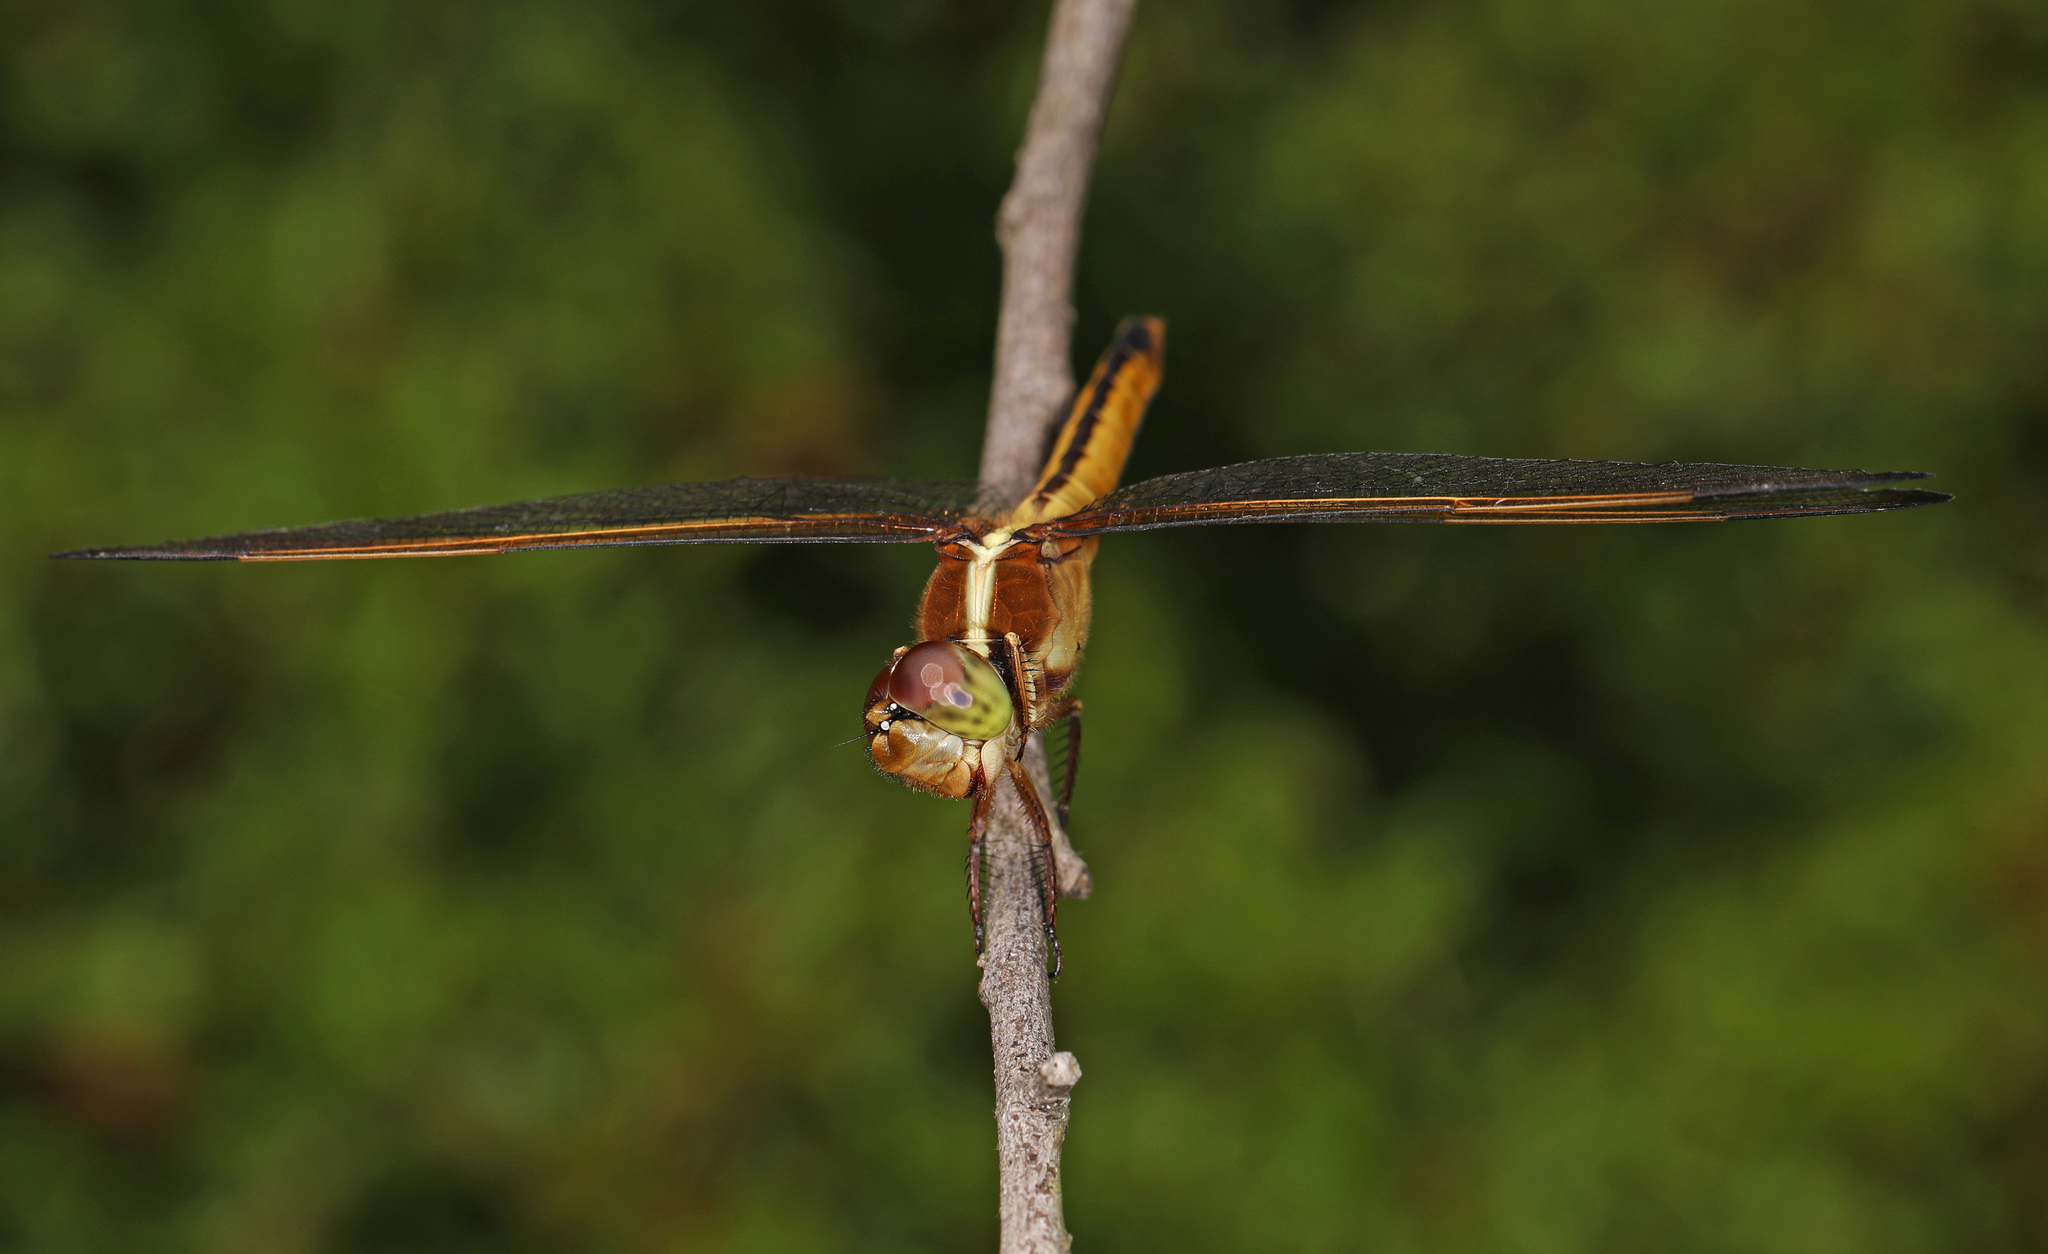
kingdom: Animalia
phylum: Arthropoda
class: Insecta
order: Odonata
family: Libellulidae
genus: Libellula
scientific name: Libellula needhami
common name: Needham's skimmer
